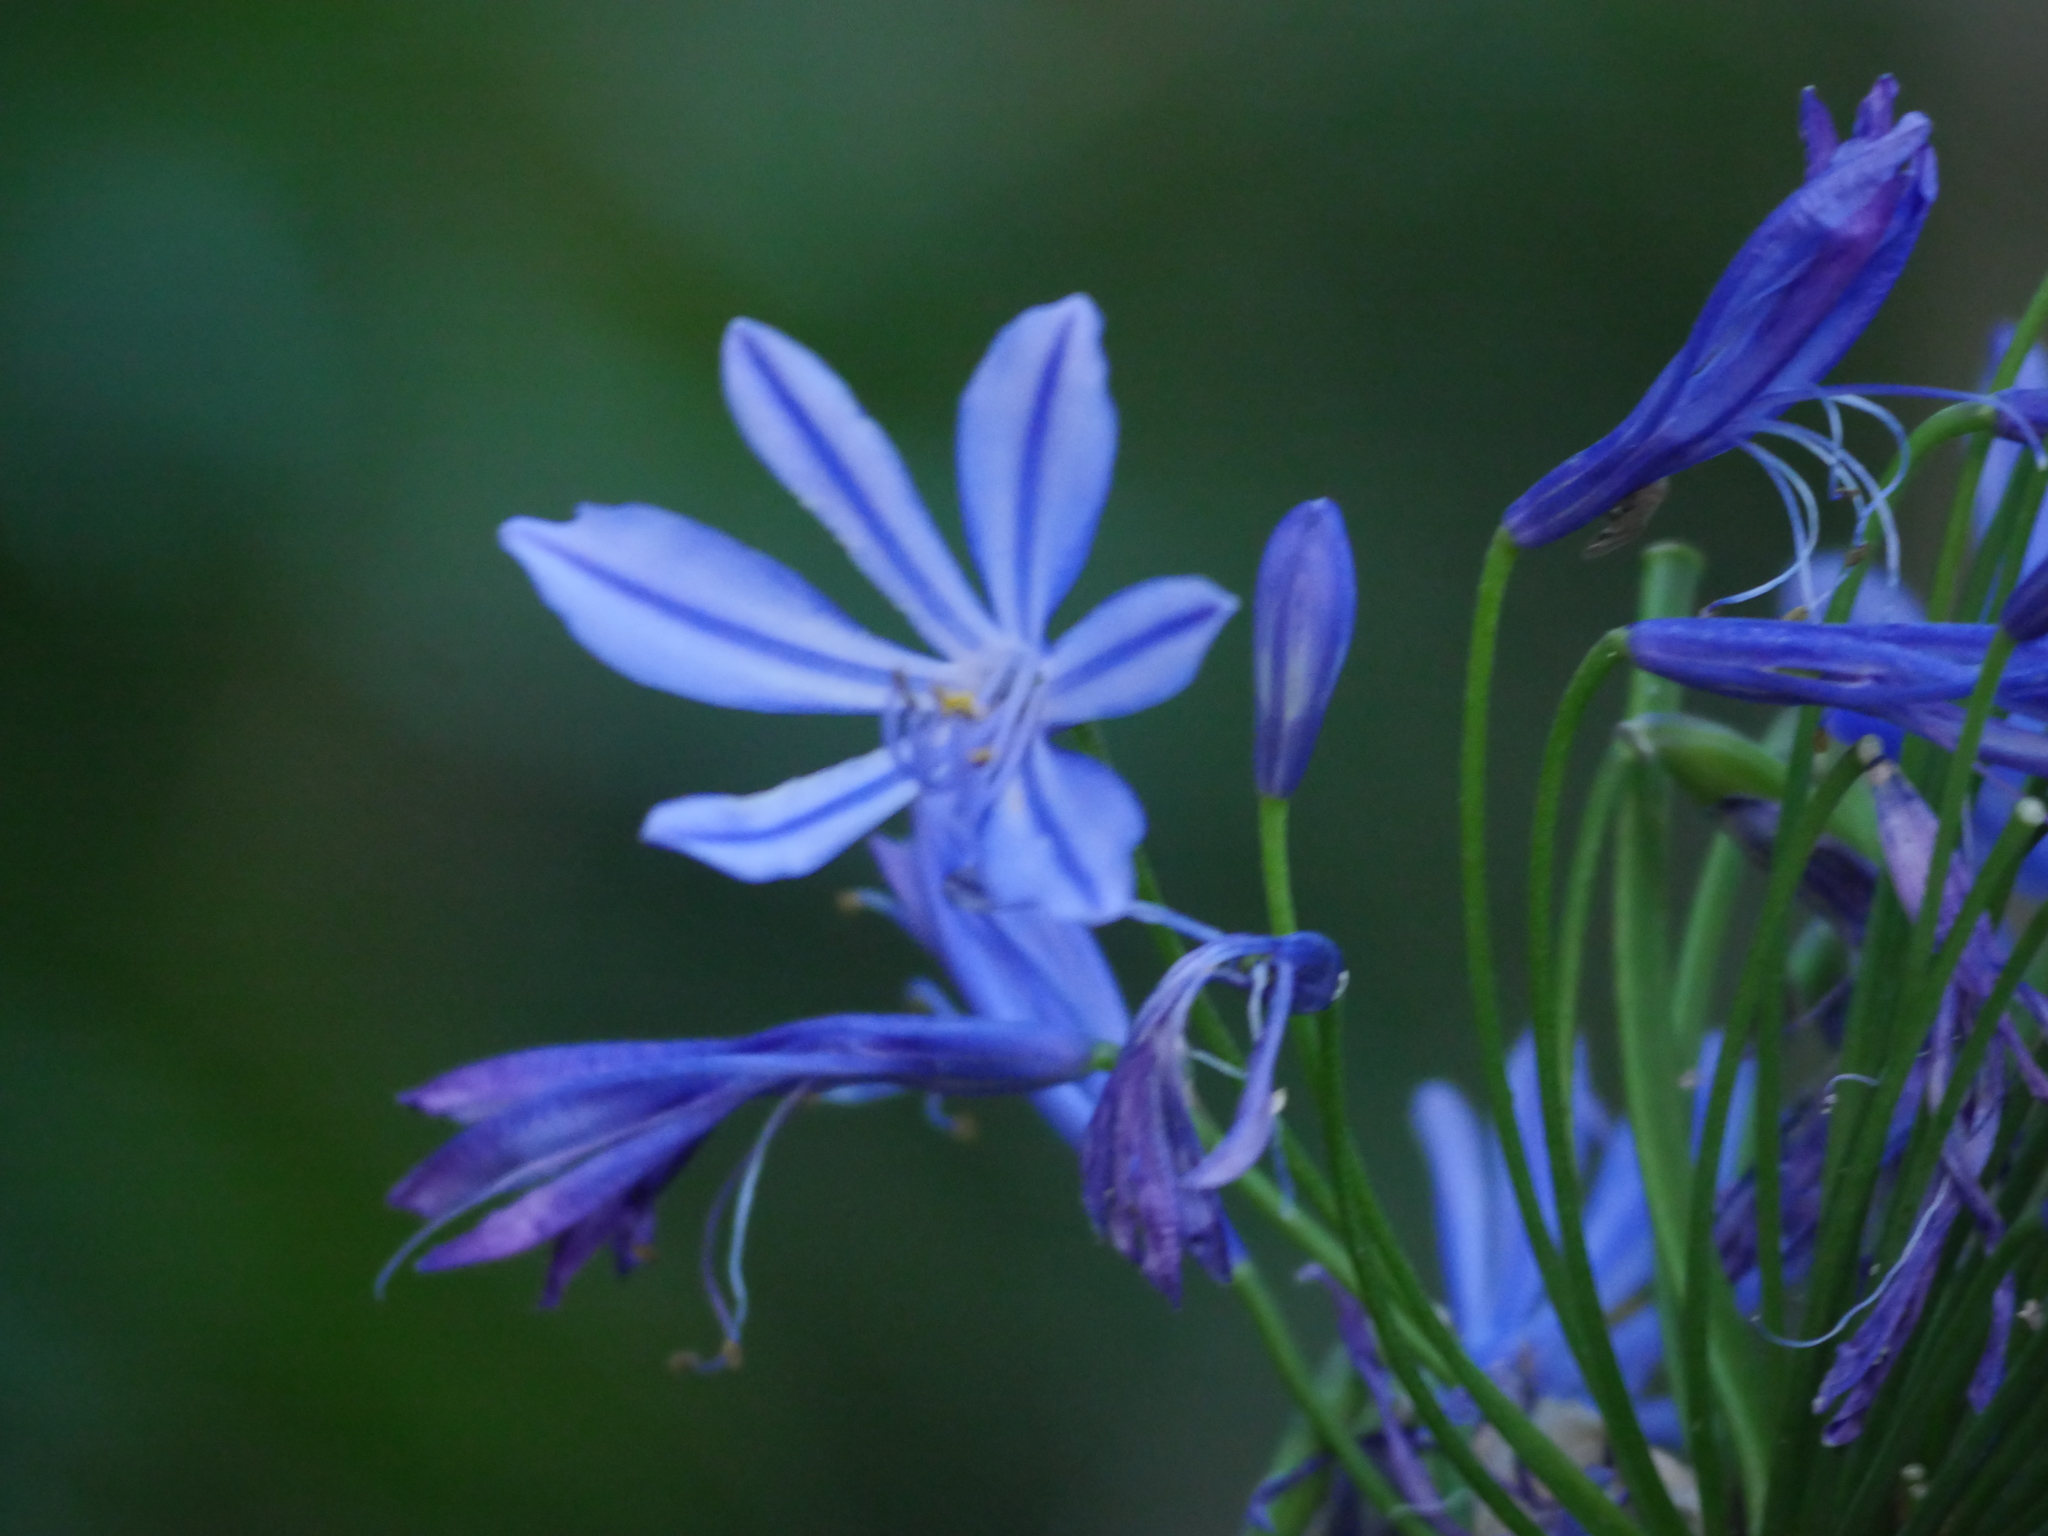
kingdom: Plantae
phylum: Tracheophyta
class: Liliopsida
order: Asparagales
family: Amaryllidaceae
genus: Agapanthus
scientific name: Agapanthus praecox
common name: African-lily
